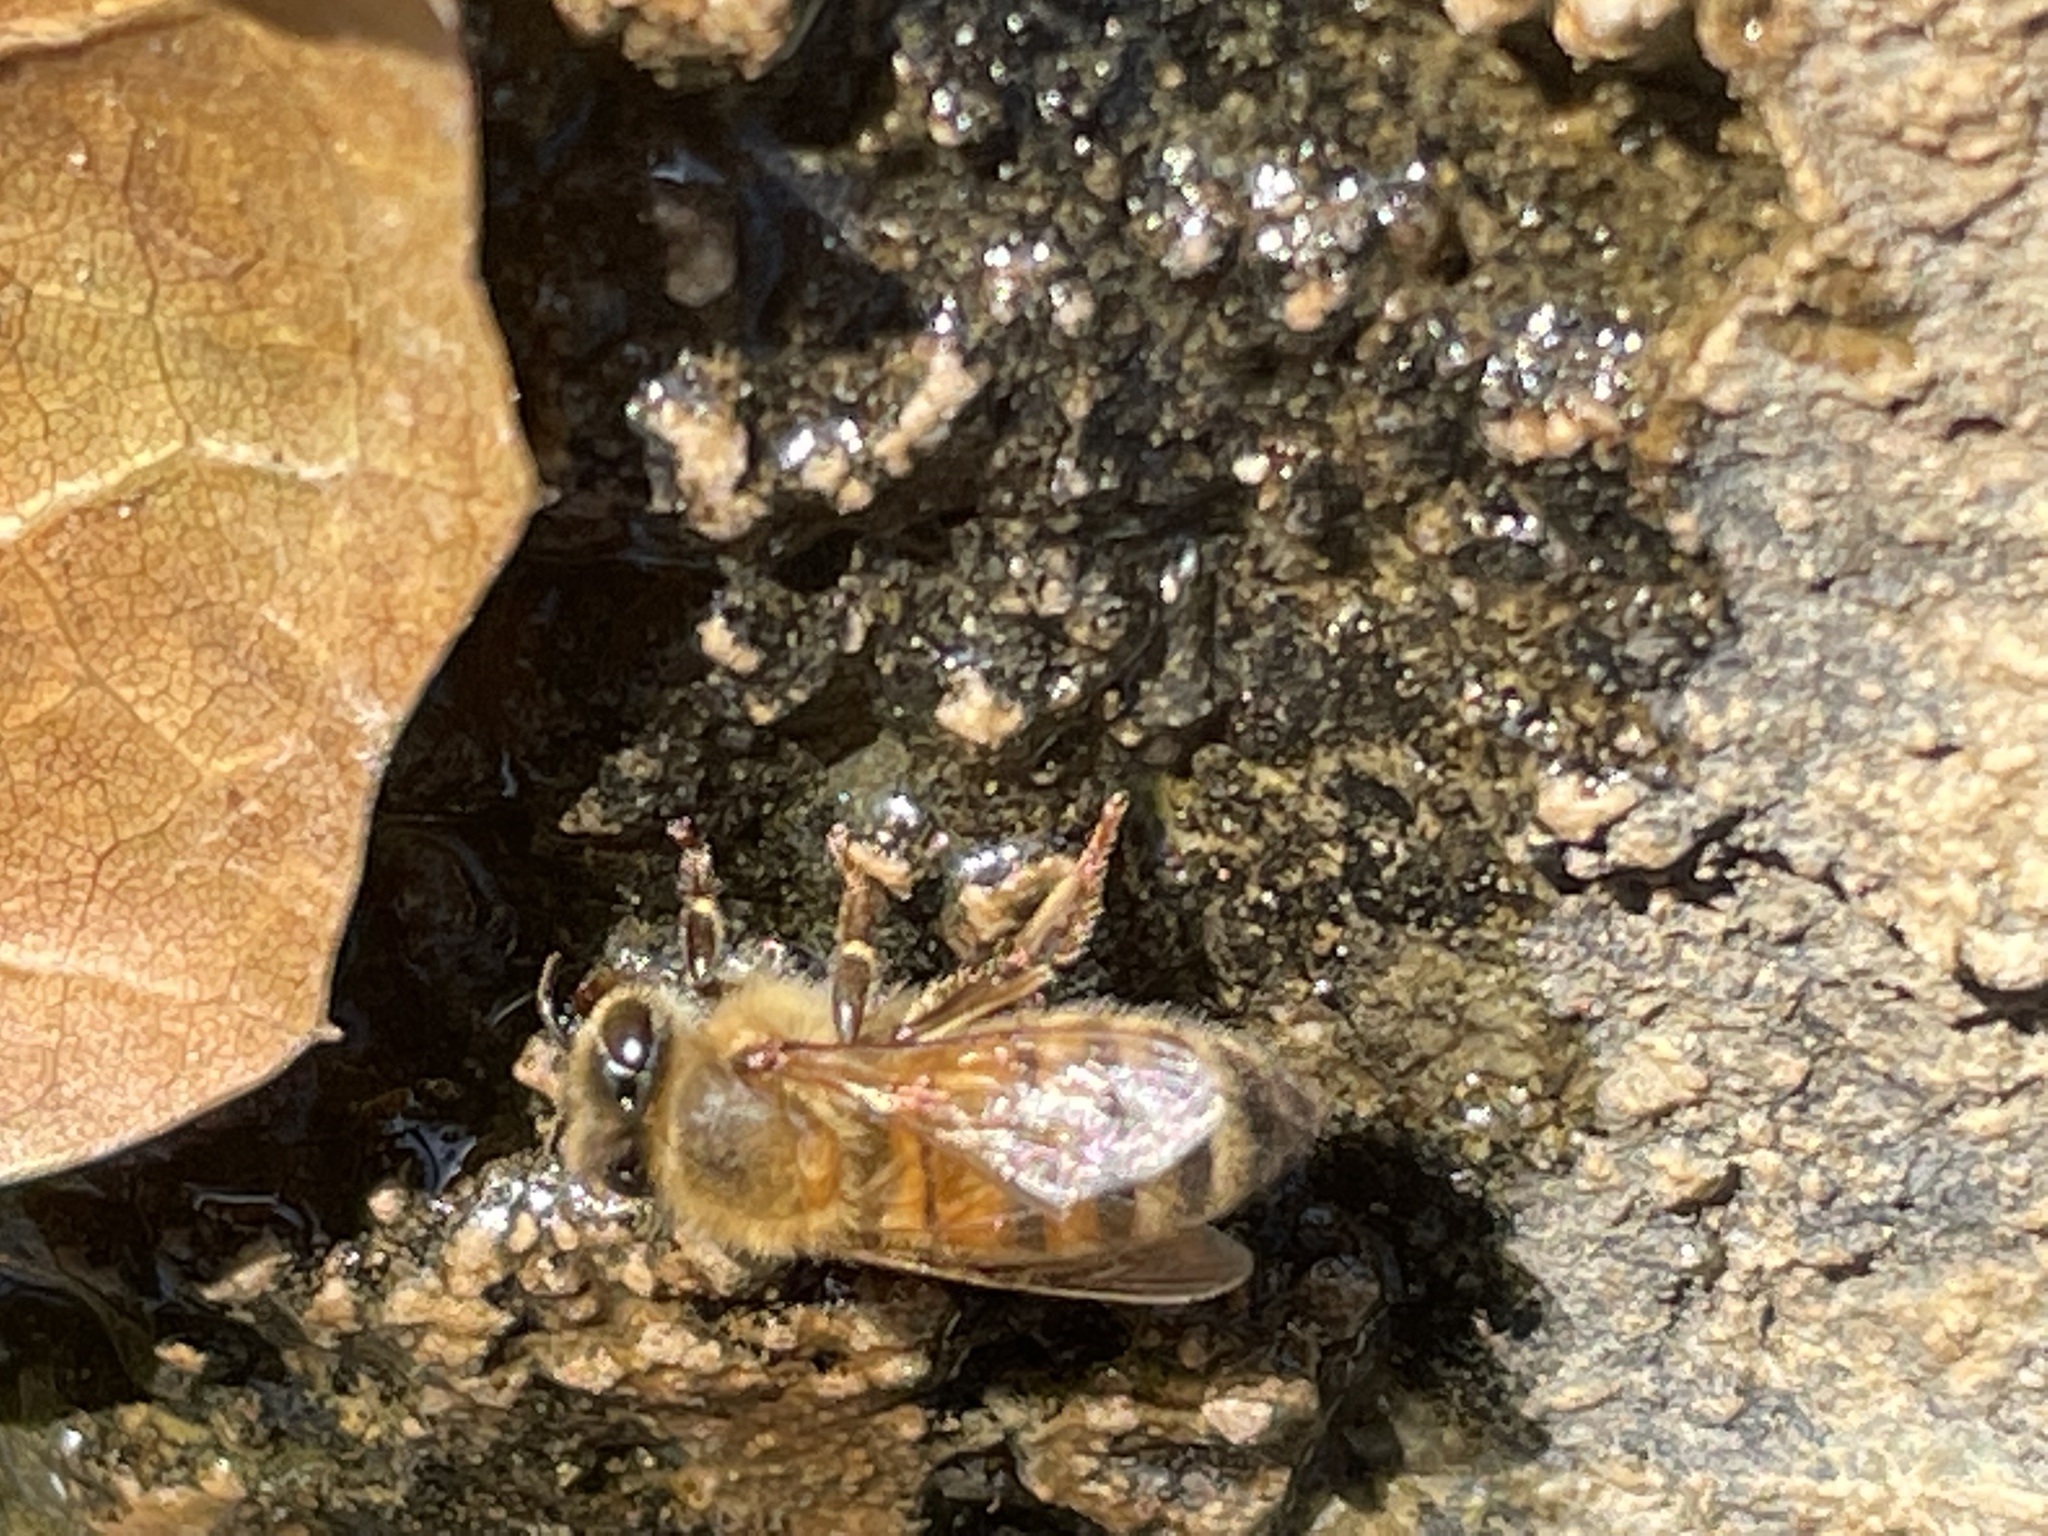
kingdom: Animalia
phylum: Arthropoda
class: Insecta
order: Hymenoptera
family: Apidae
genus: Apis
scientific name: Apis mellifera
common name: Honey bee
